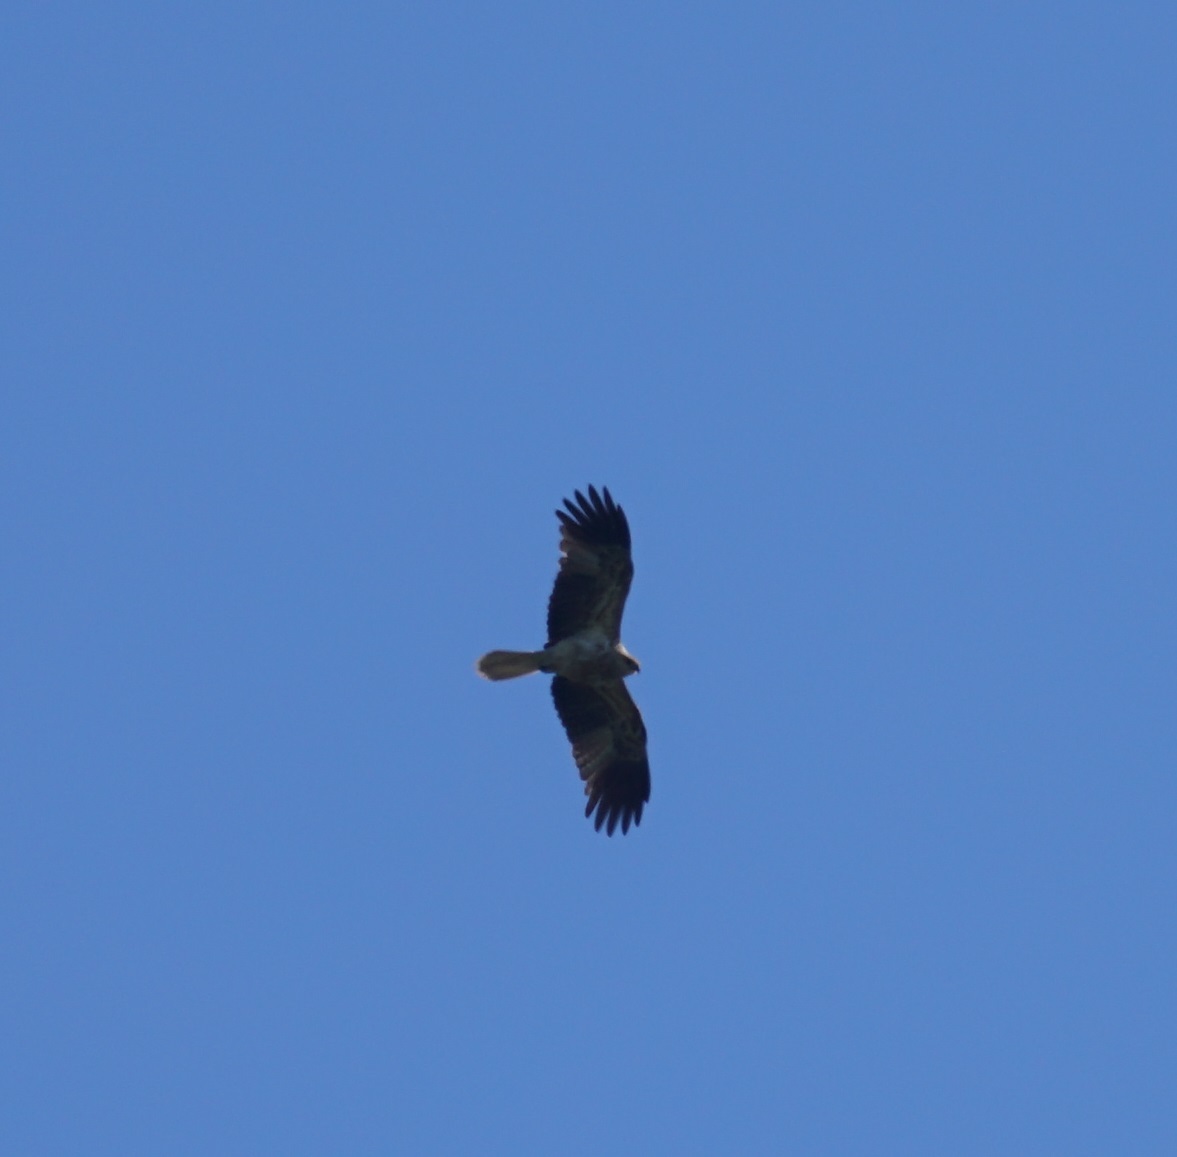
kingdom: Animalia
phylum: Chordata
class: Aves
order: Accipitriformes
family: Accipitridae
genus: Haliastur
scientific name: Haliastur sphenurus
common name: Whistling kite
